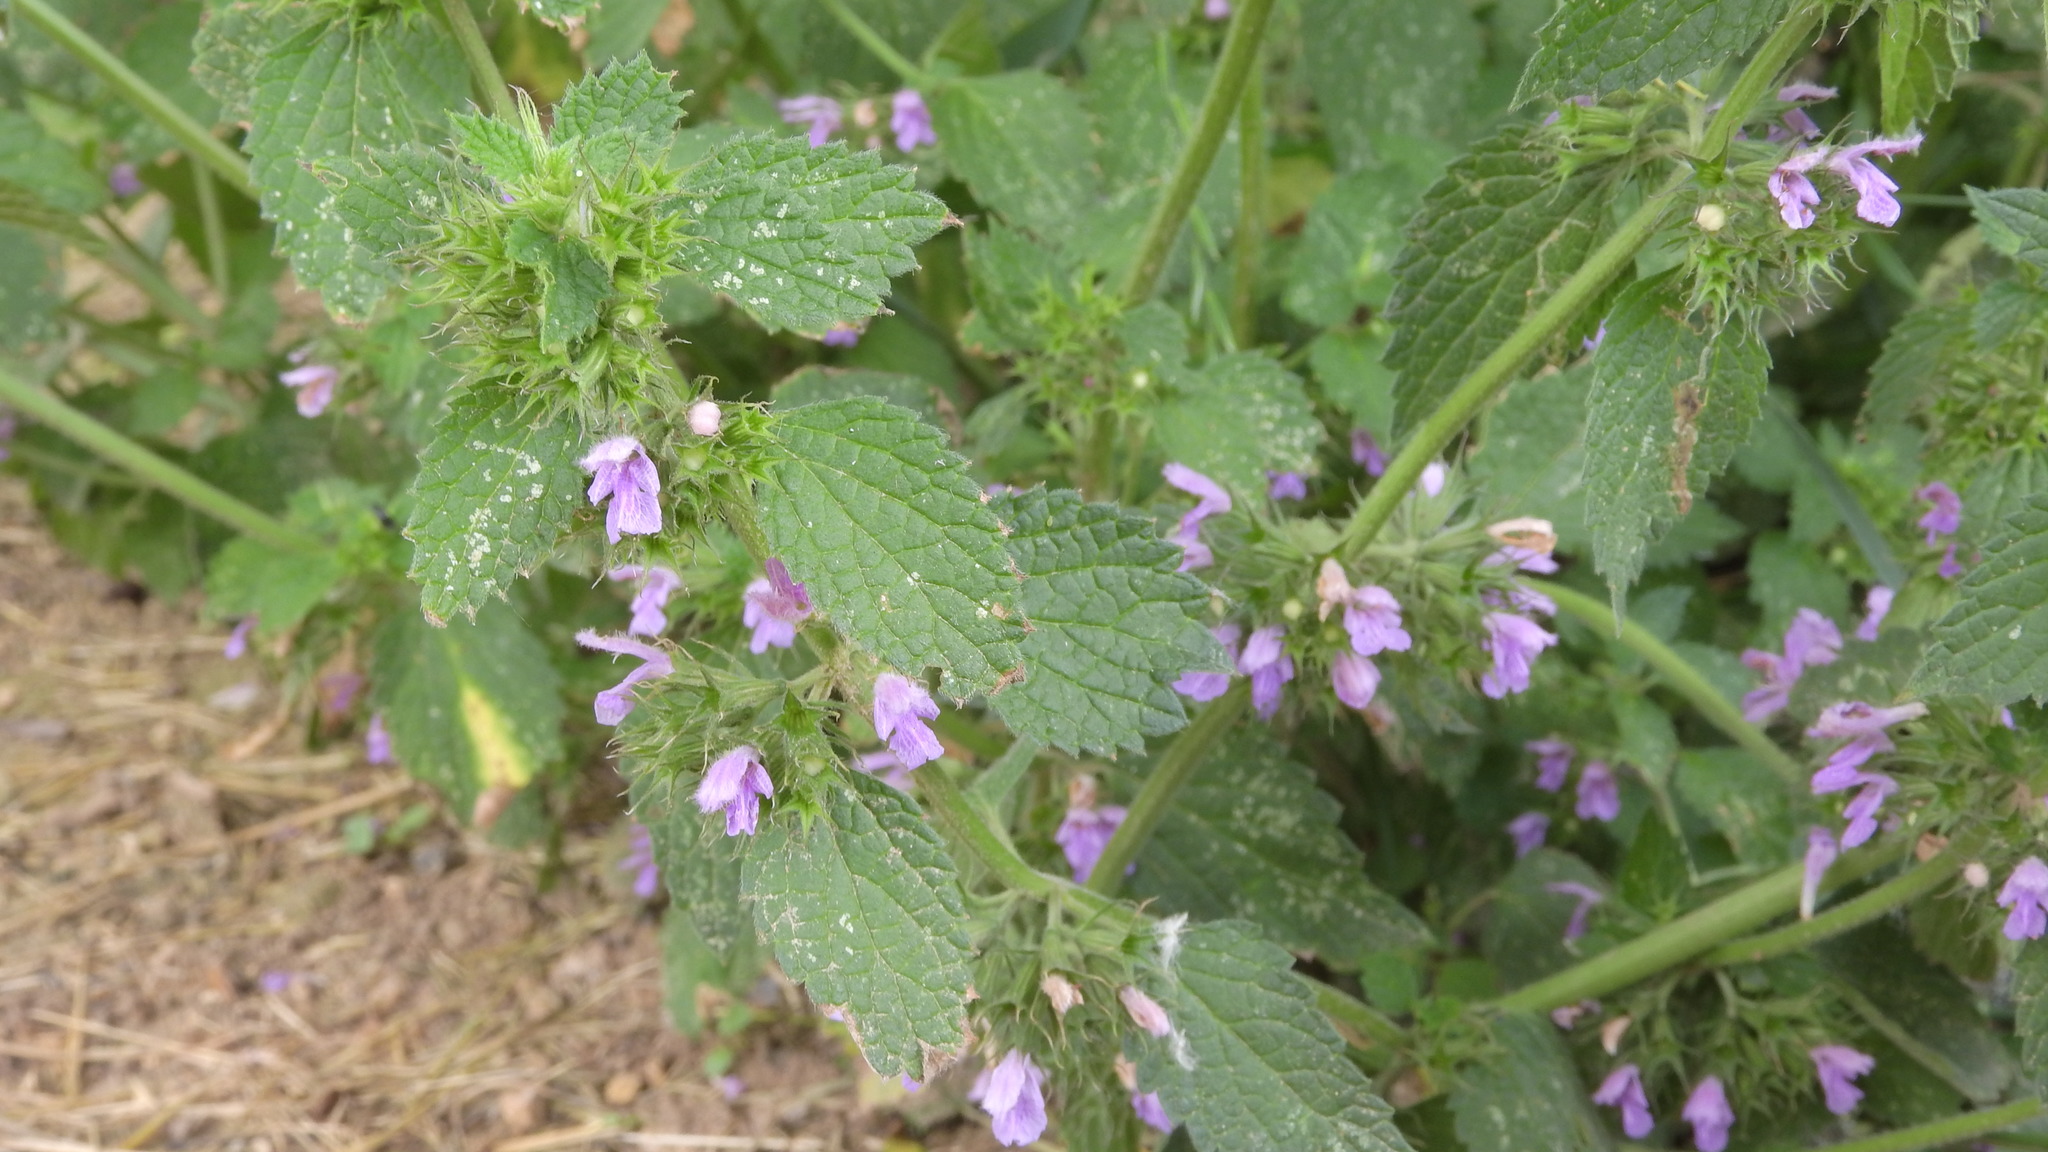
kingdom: Plantae
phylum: Tracheophyta
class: Magnoliopsida
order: Lamiales
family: Lamiaceae
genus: Ballota
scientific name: Ballota nigra
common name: Black horehound
